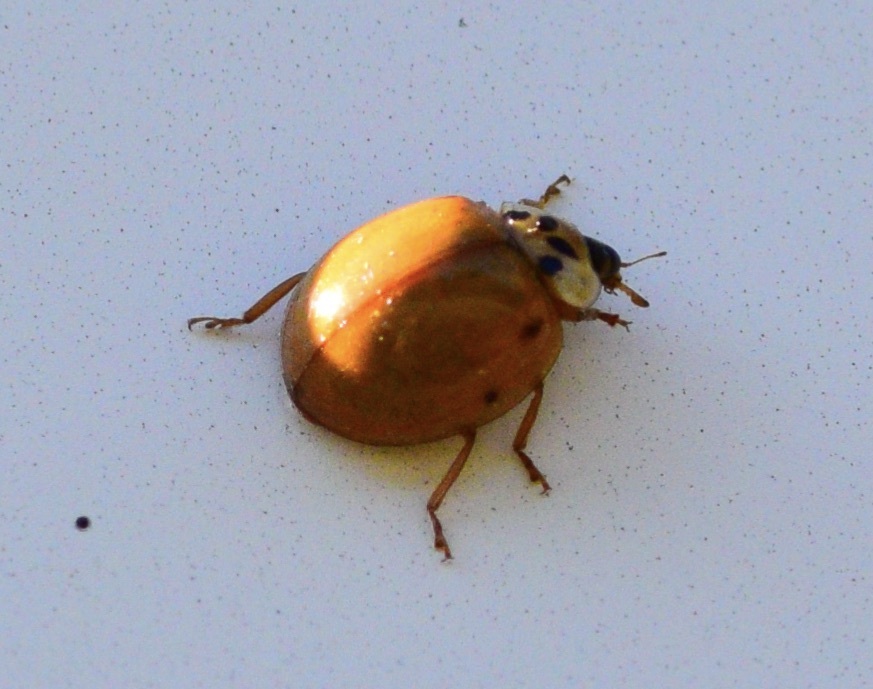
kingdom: Animalia
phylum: Arthropoda
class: Insecta
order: Coleoptera
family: Coccinellidae
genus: Harmonia
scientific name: Harmonia axyridis
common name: Harlequin ladybird
